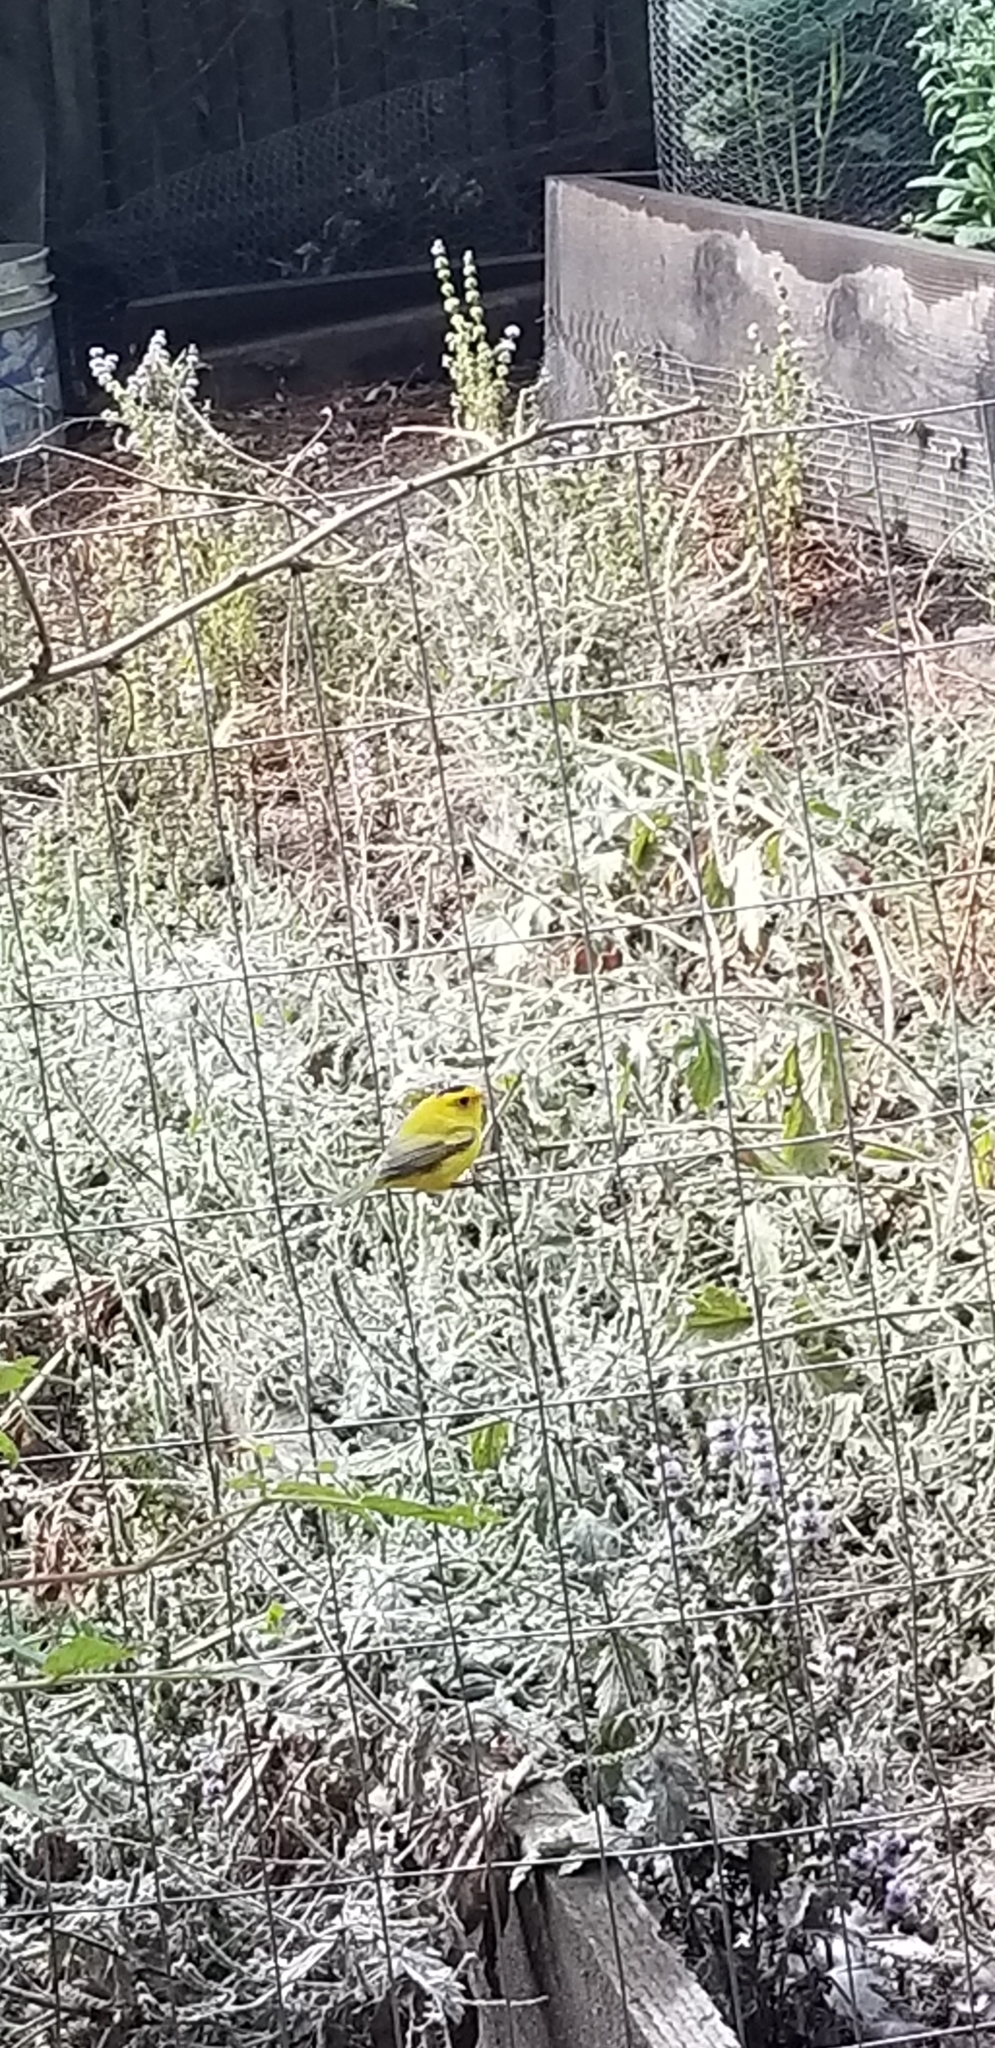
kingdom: Animalia
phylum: Chordata
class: Aves
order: Passeriformes
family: Parulidae
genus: Cardellina
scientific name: Cardellina pusilla
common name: Wilson's warbler
